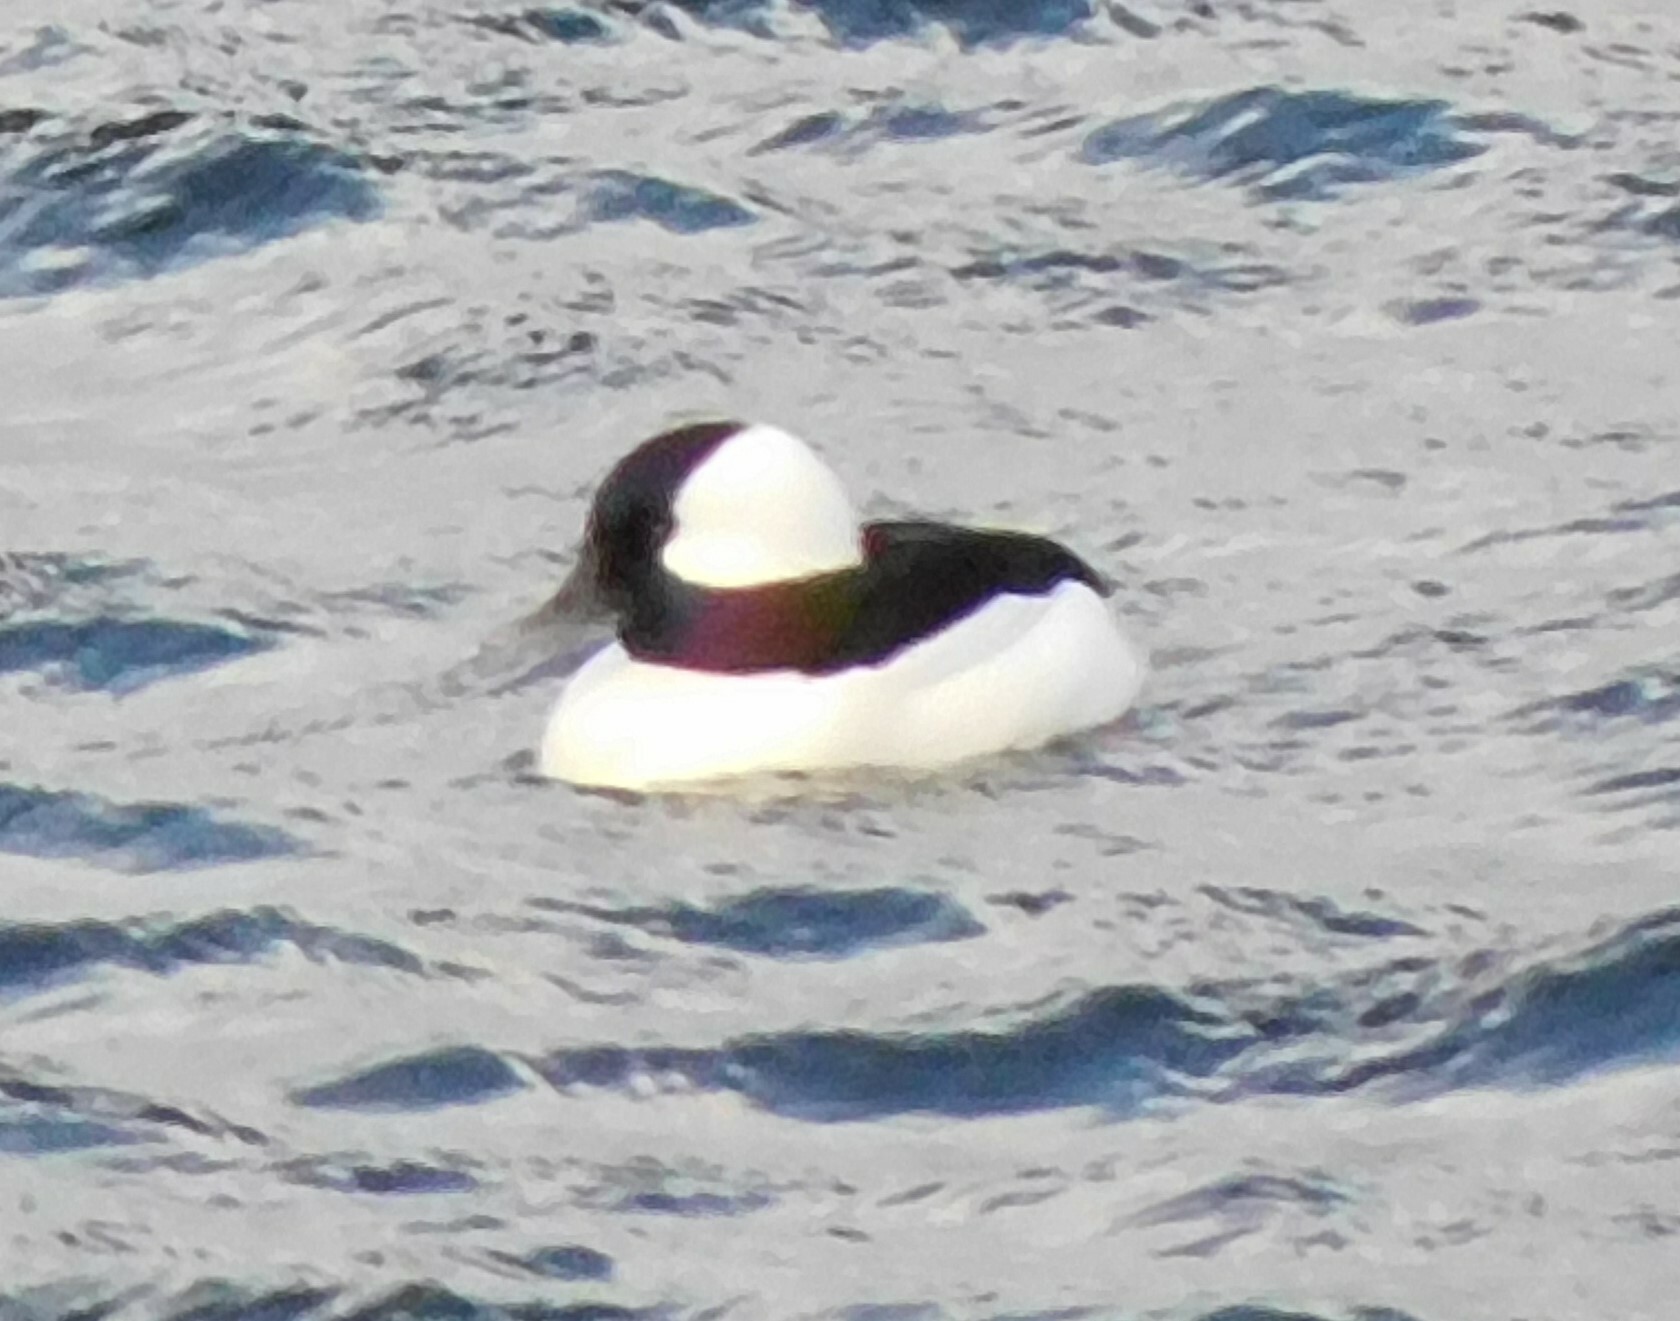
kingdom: Animalia
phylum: Chordata
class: Aves
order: Anseriformes
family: Anatidae
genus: Bucephala
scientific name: Bucephala albeola
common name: Bufflehead
